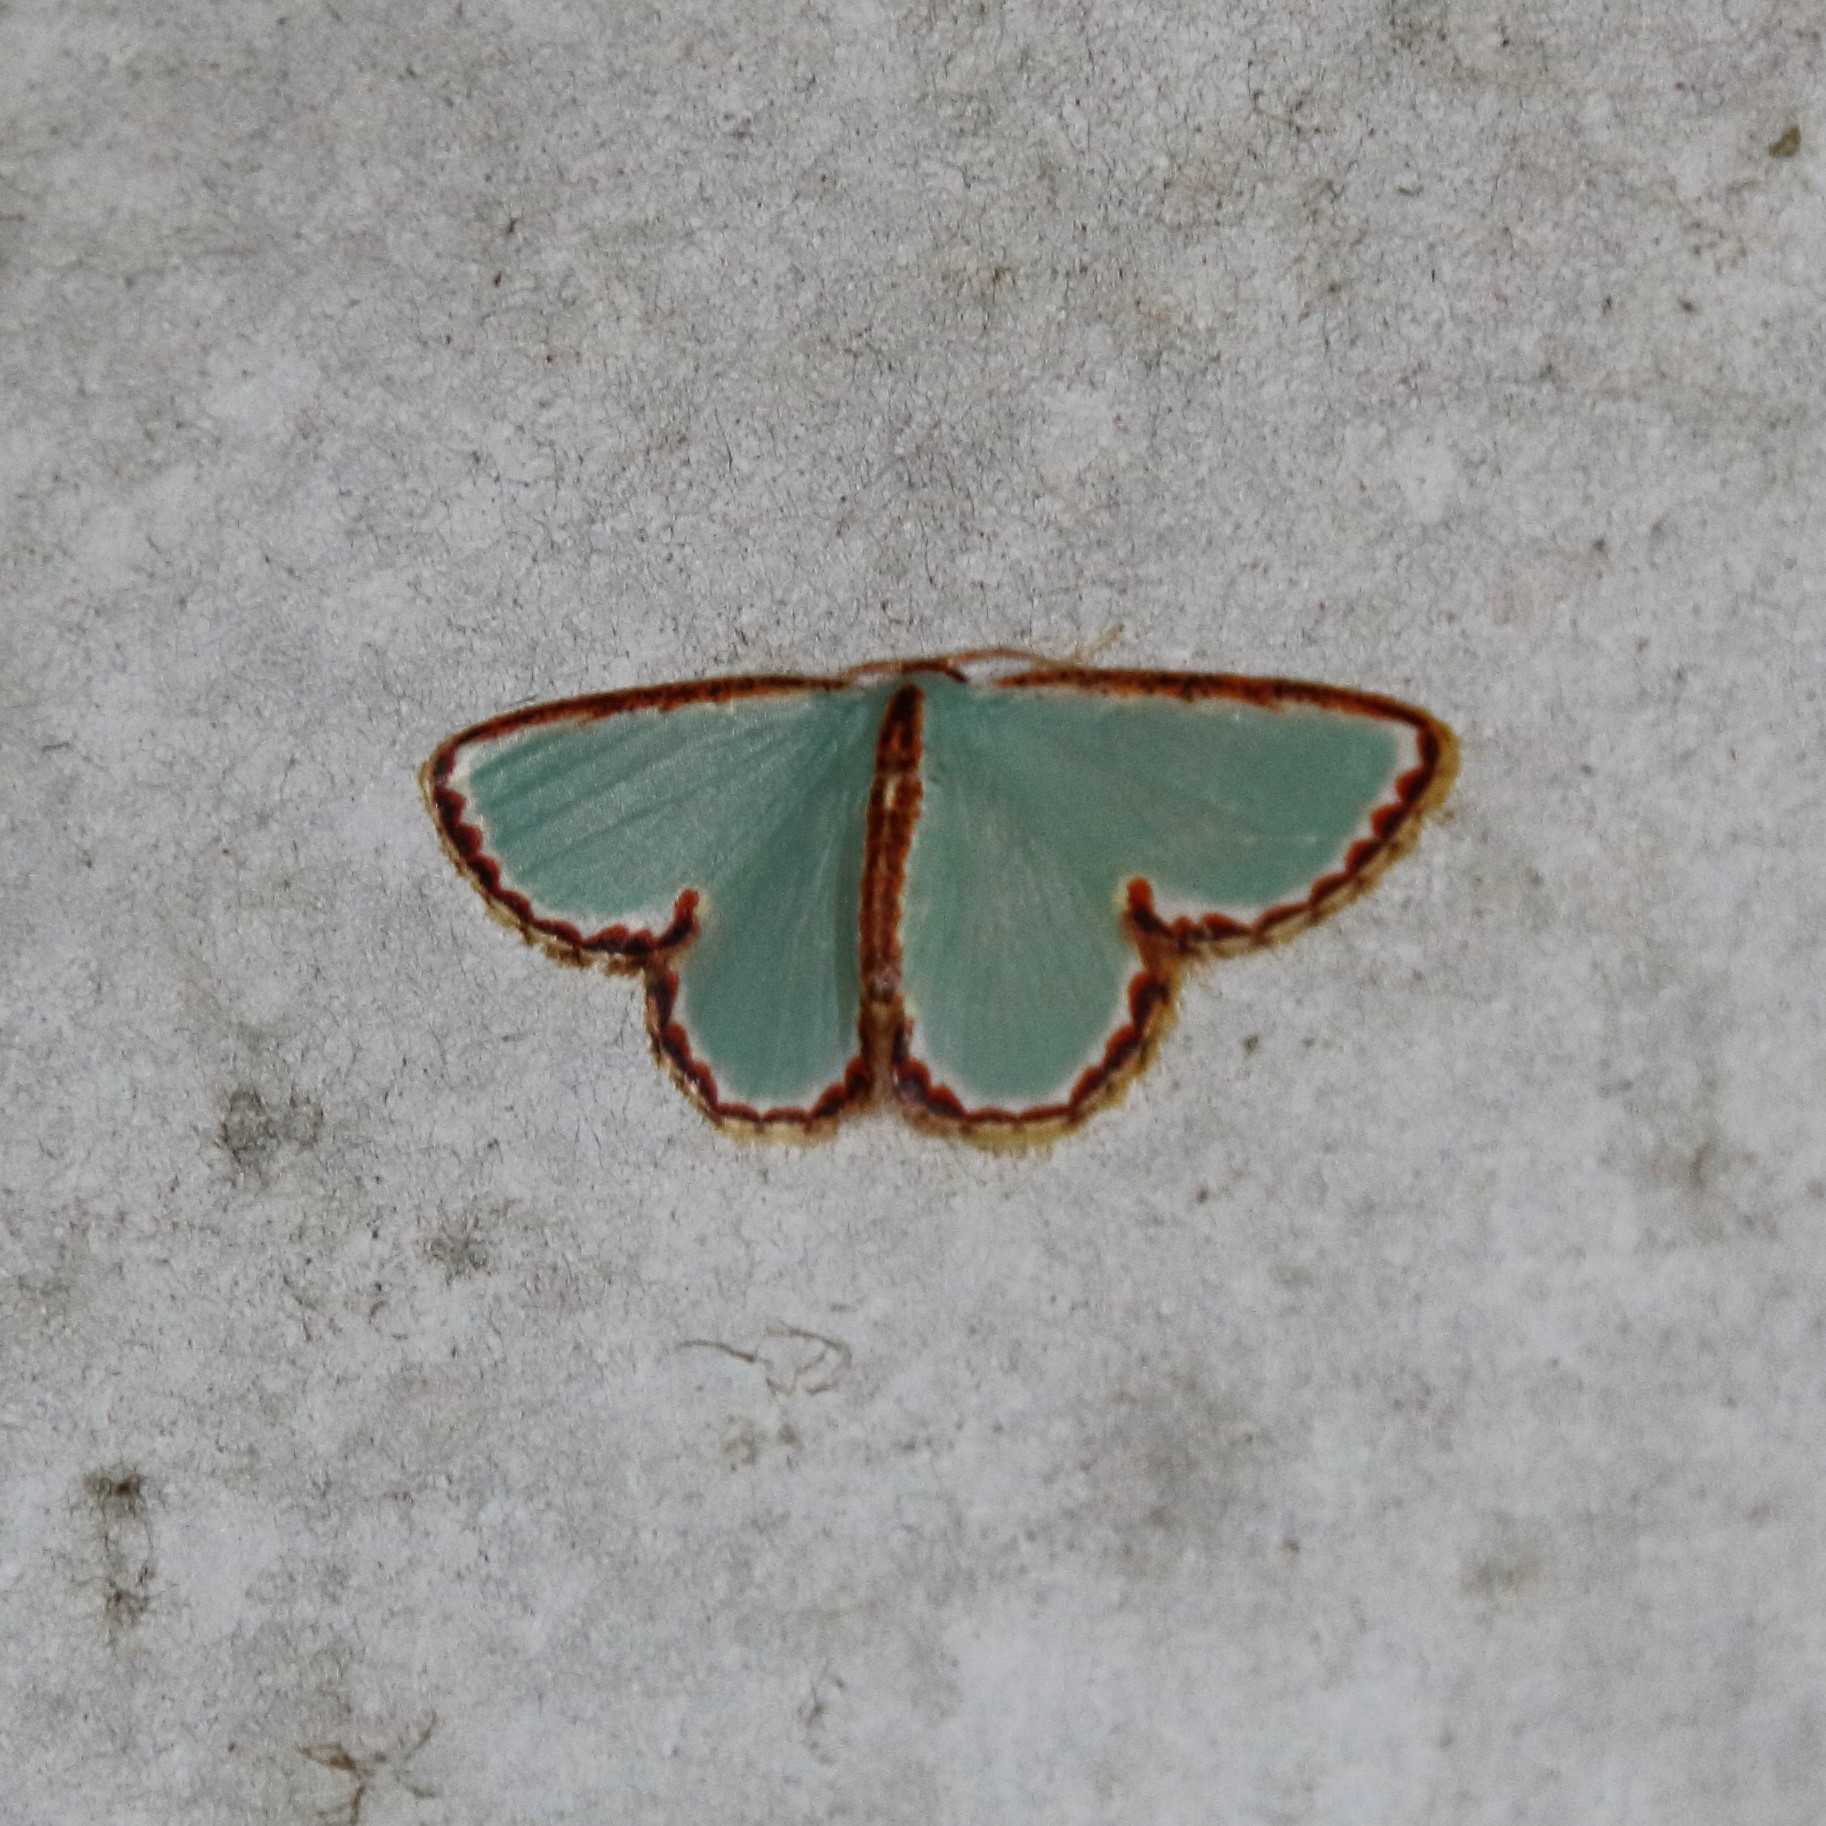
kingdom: Animalia
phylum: Arthropoda
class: Insecta
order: Lepidoptera
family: Geometridae
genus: Comostola
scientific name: Comostola turgescens
